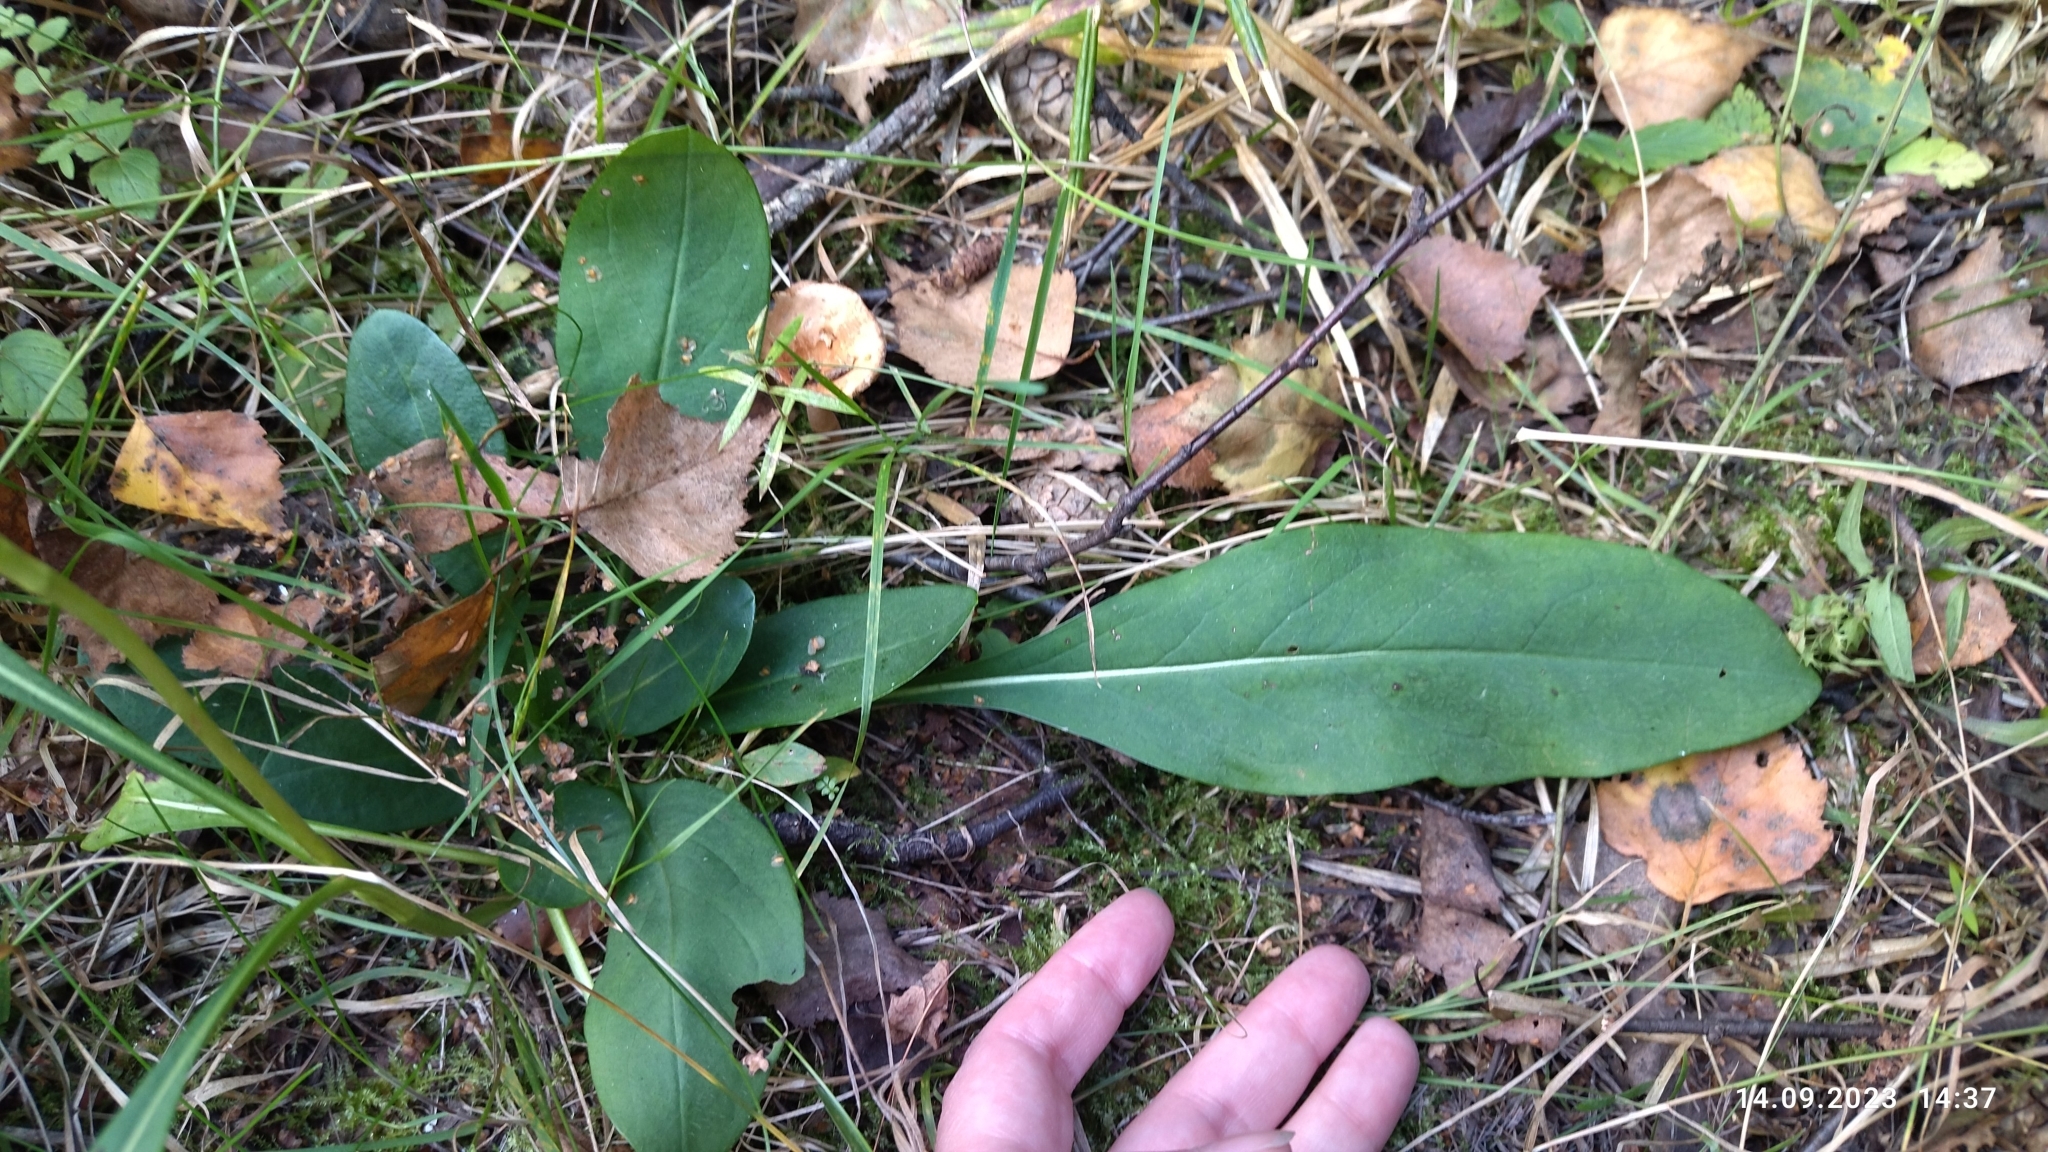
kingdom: Plantae
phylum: Tracheophyta
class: Magnoliopsida
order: Dipsacales
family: Caprifoliaceae
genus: Succisa
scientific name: Succisa pratensis
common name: Devil's-bit
